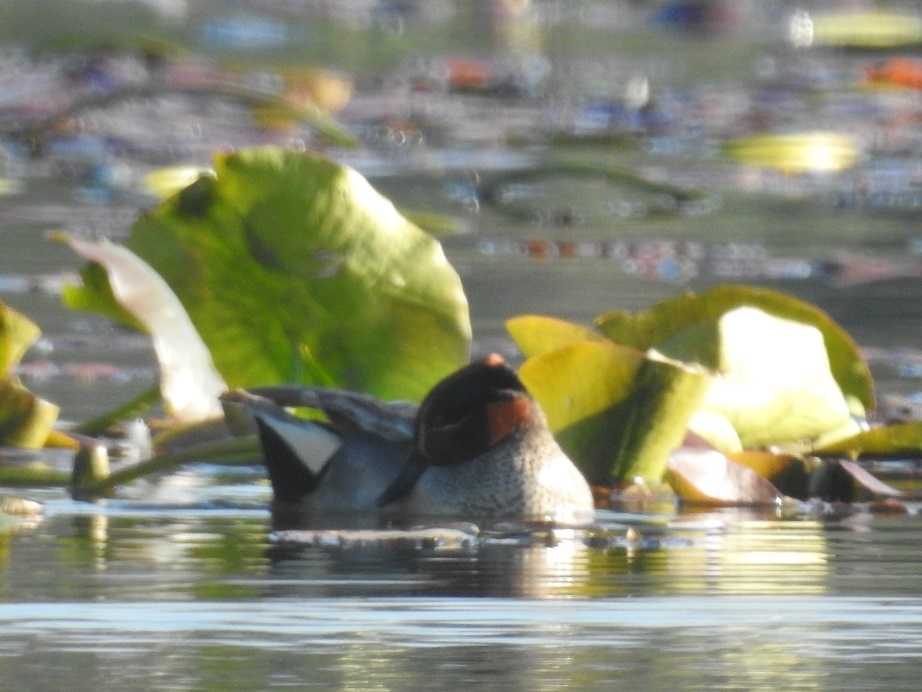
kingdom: Animalia
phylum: Chordata
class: Aves
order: Anseriformes
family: Anatidae
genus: Anas
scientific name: Anas crecca
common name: Eurasian teal
